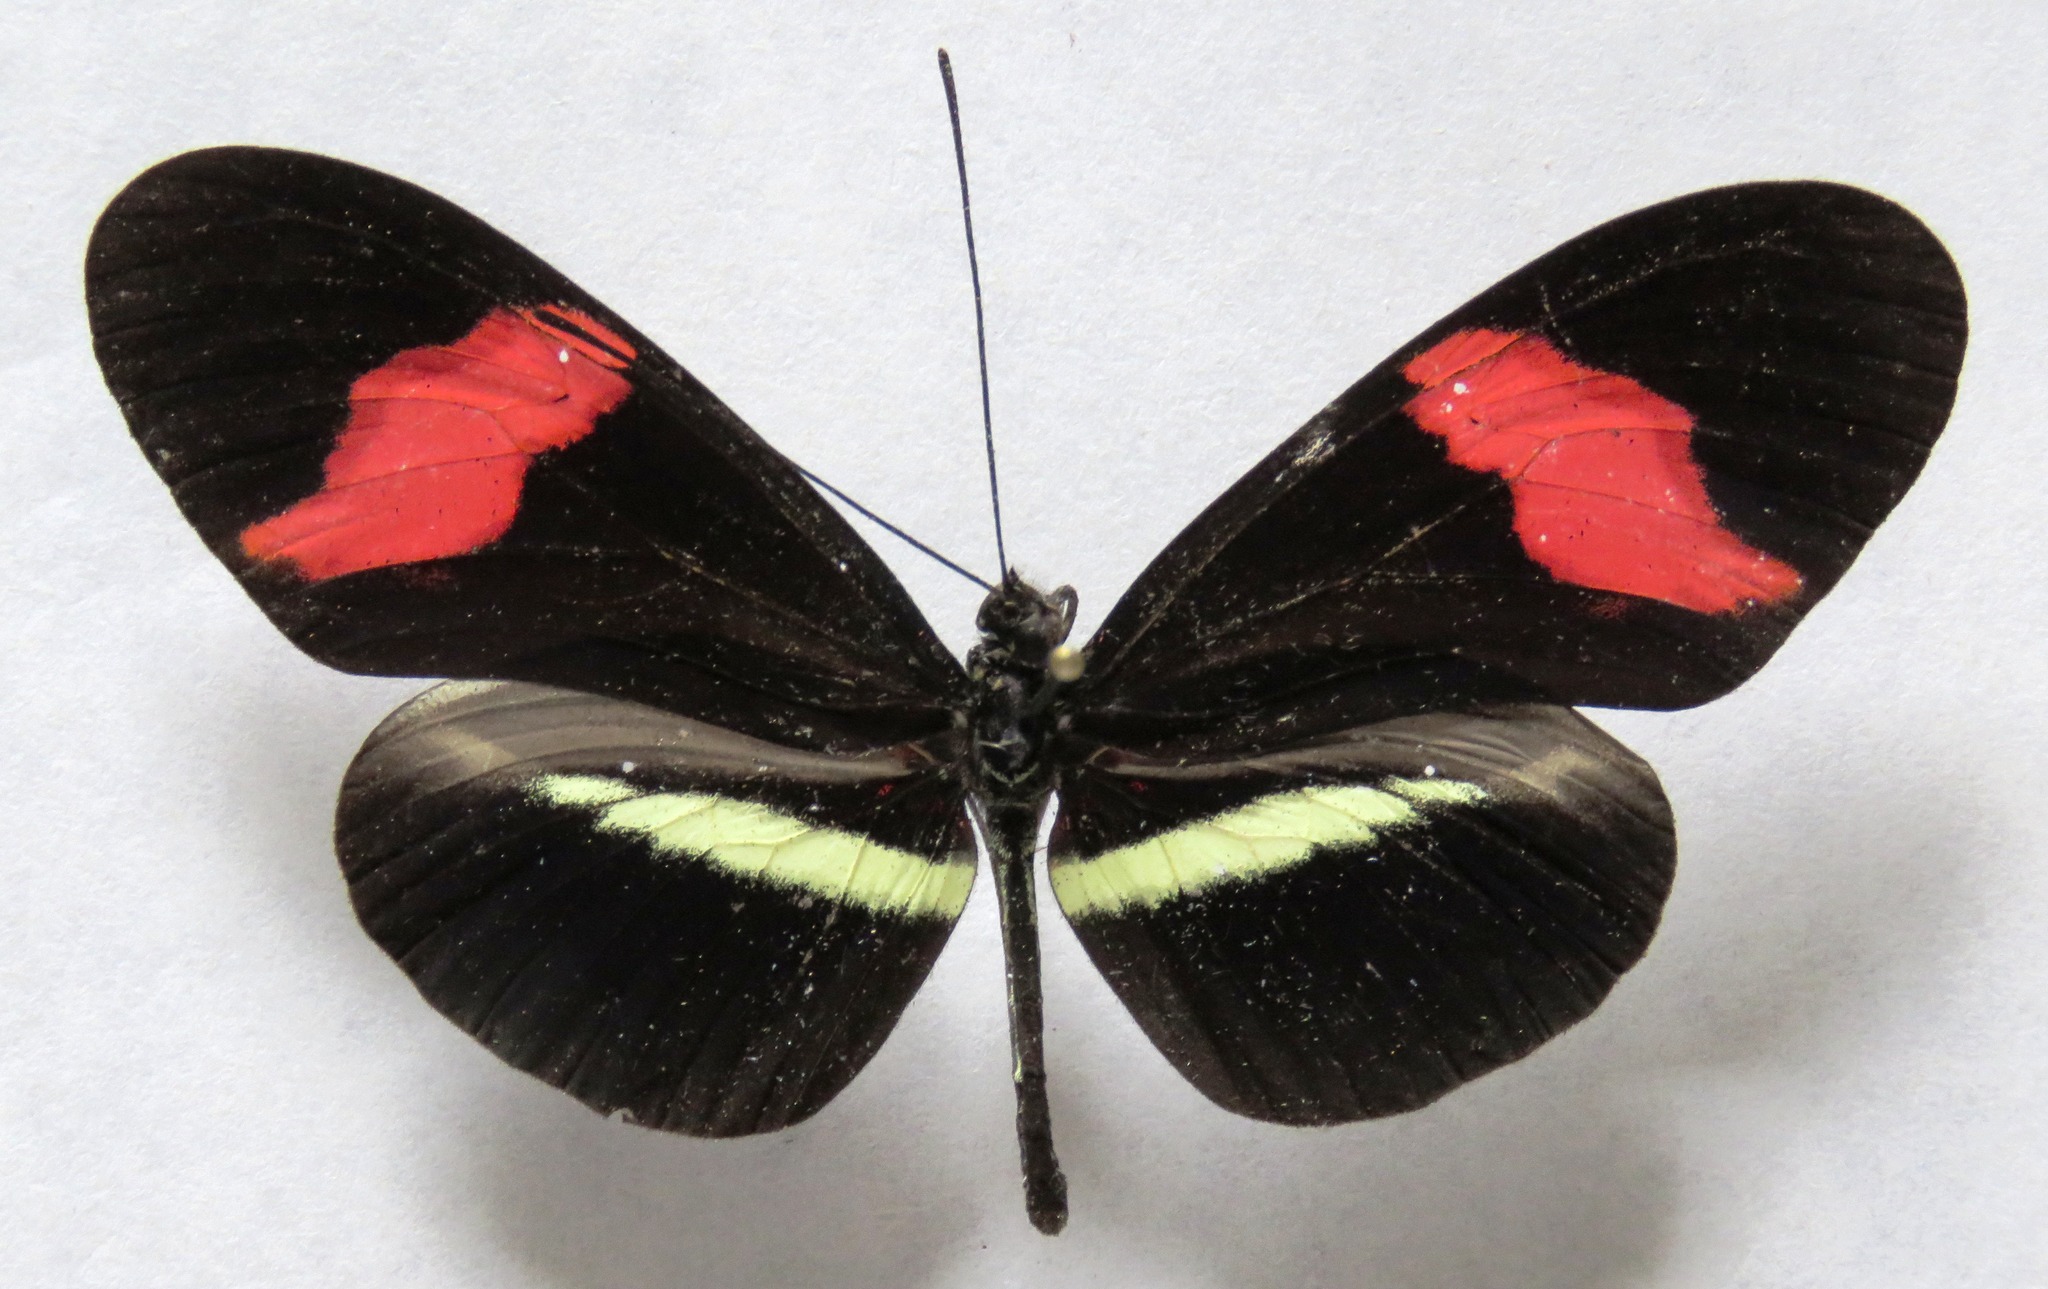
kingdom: Animalia
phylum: Arthropoda
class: Insecta
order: Lepidoptera
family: Nymphalidae
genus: Tirumala
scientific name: Tirumala petiverana
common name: Blue monarch
